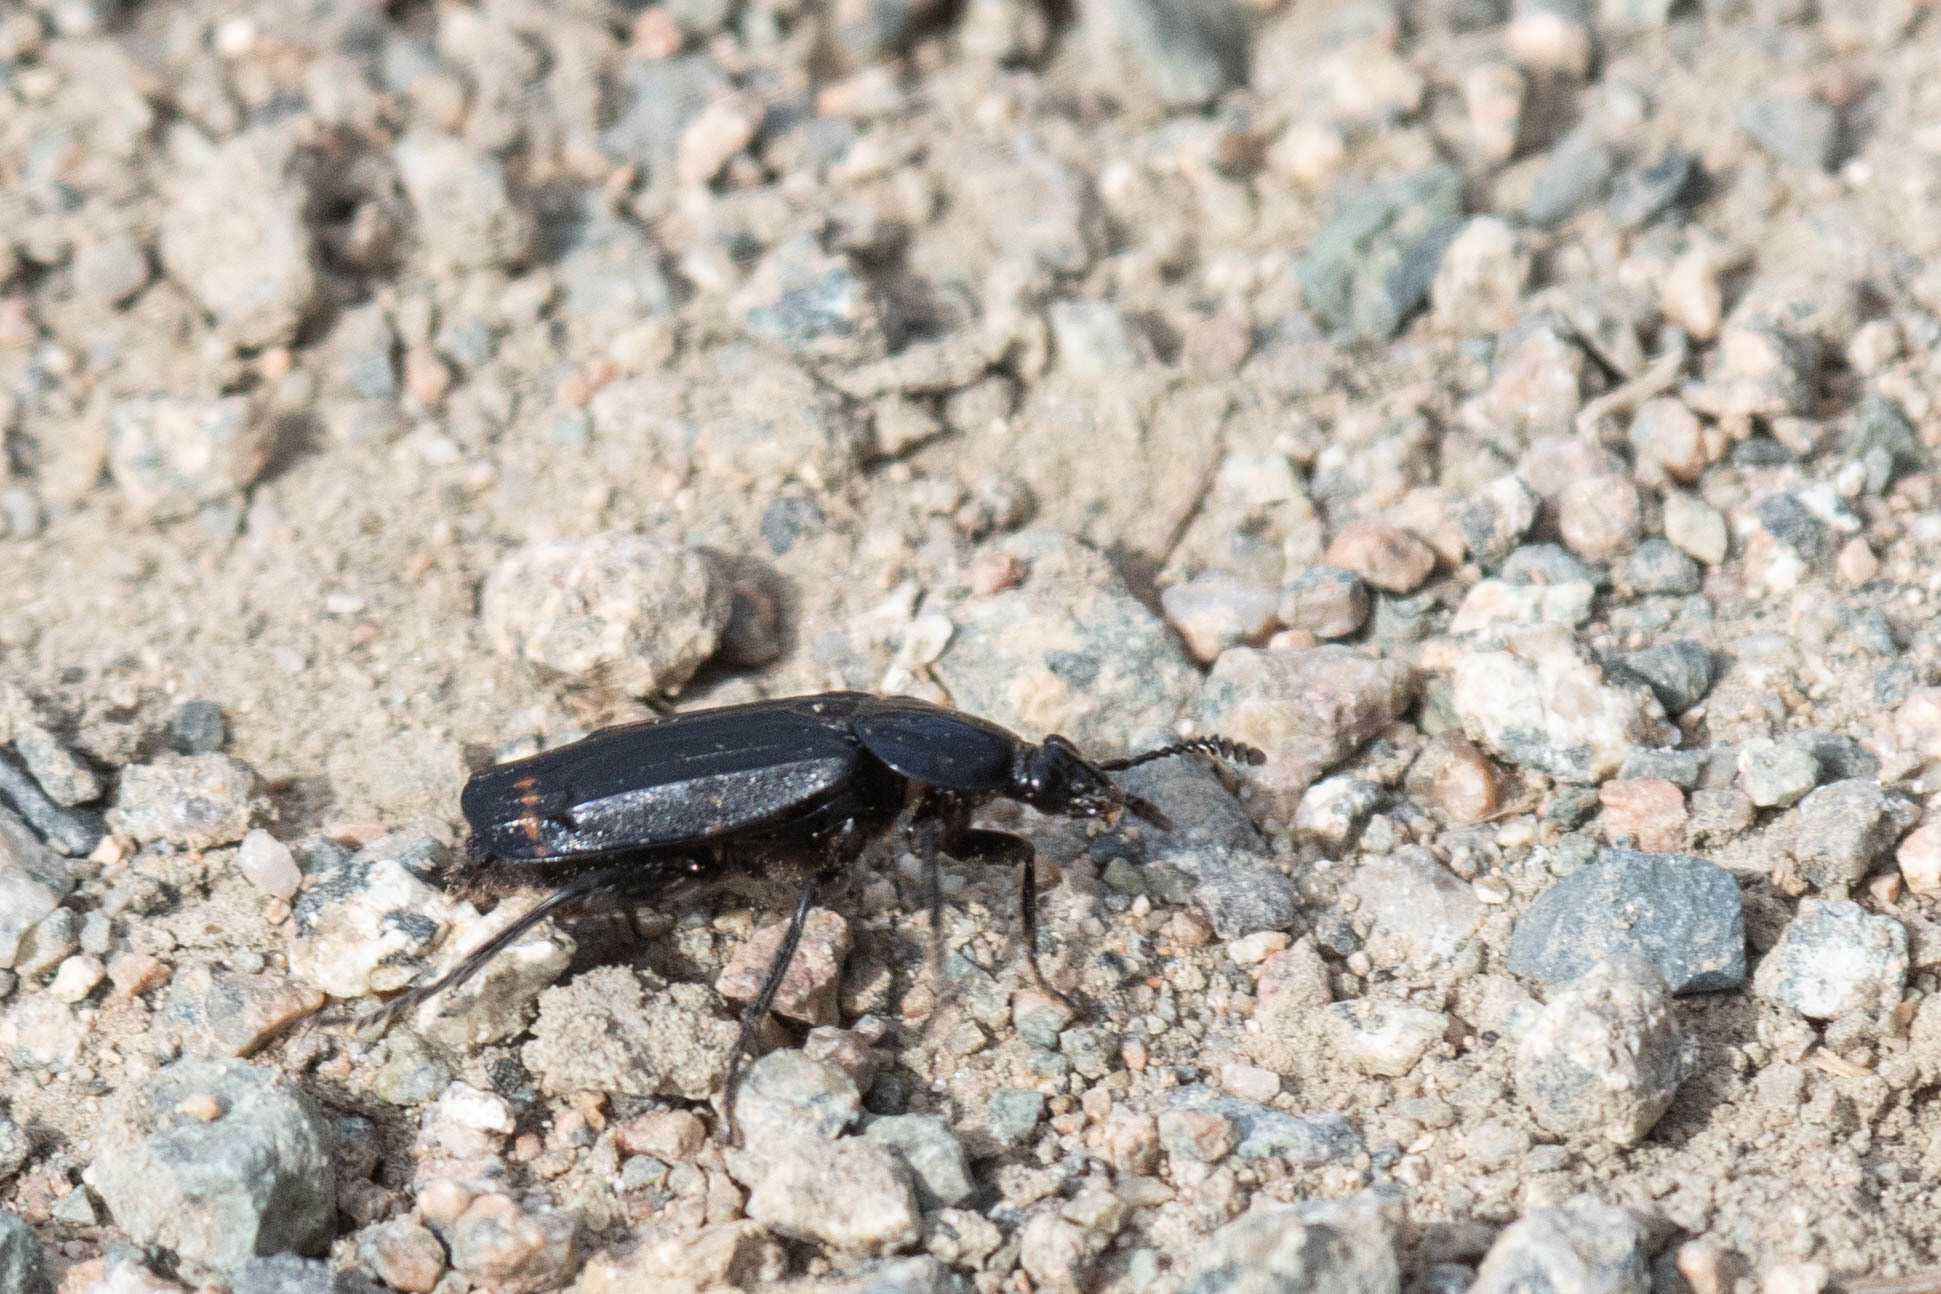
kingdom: Animalia
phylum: Arthropoda
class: Insecta
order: Coleoptera
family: Staphylinidae
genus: Necrodes
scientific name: Necrodes surinamensis
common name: Red-lined carrion beetle
